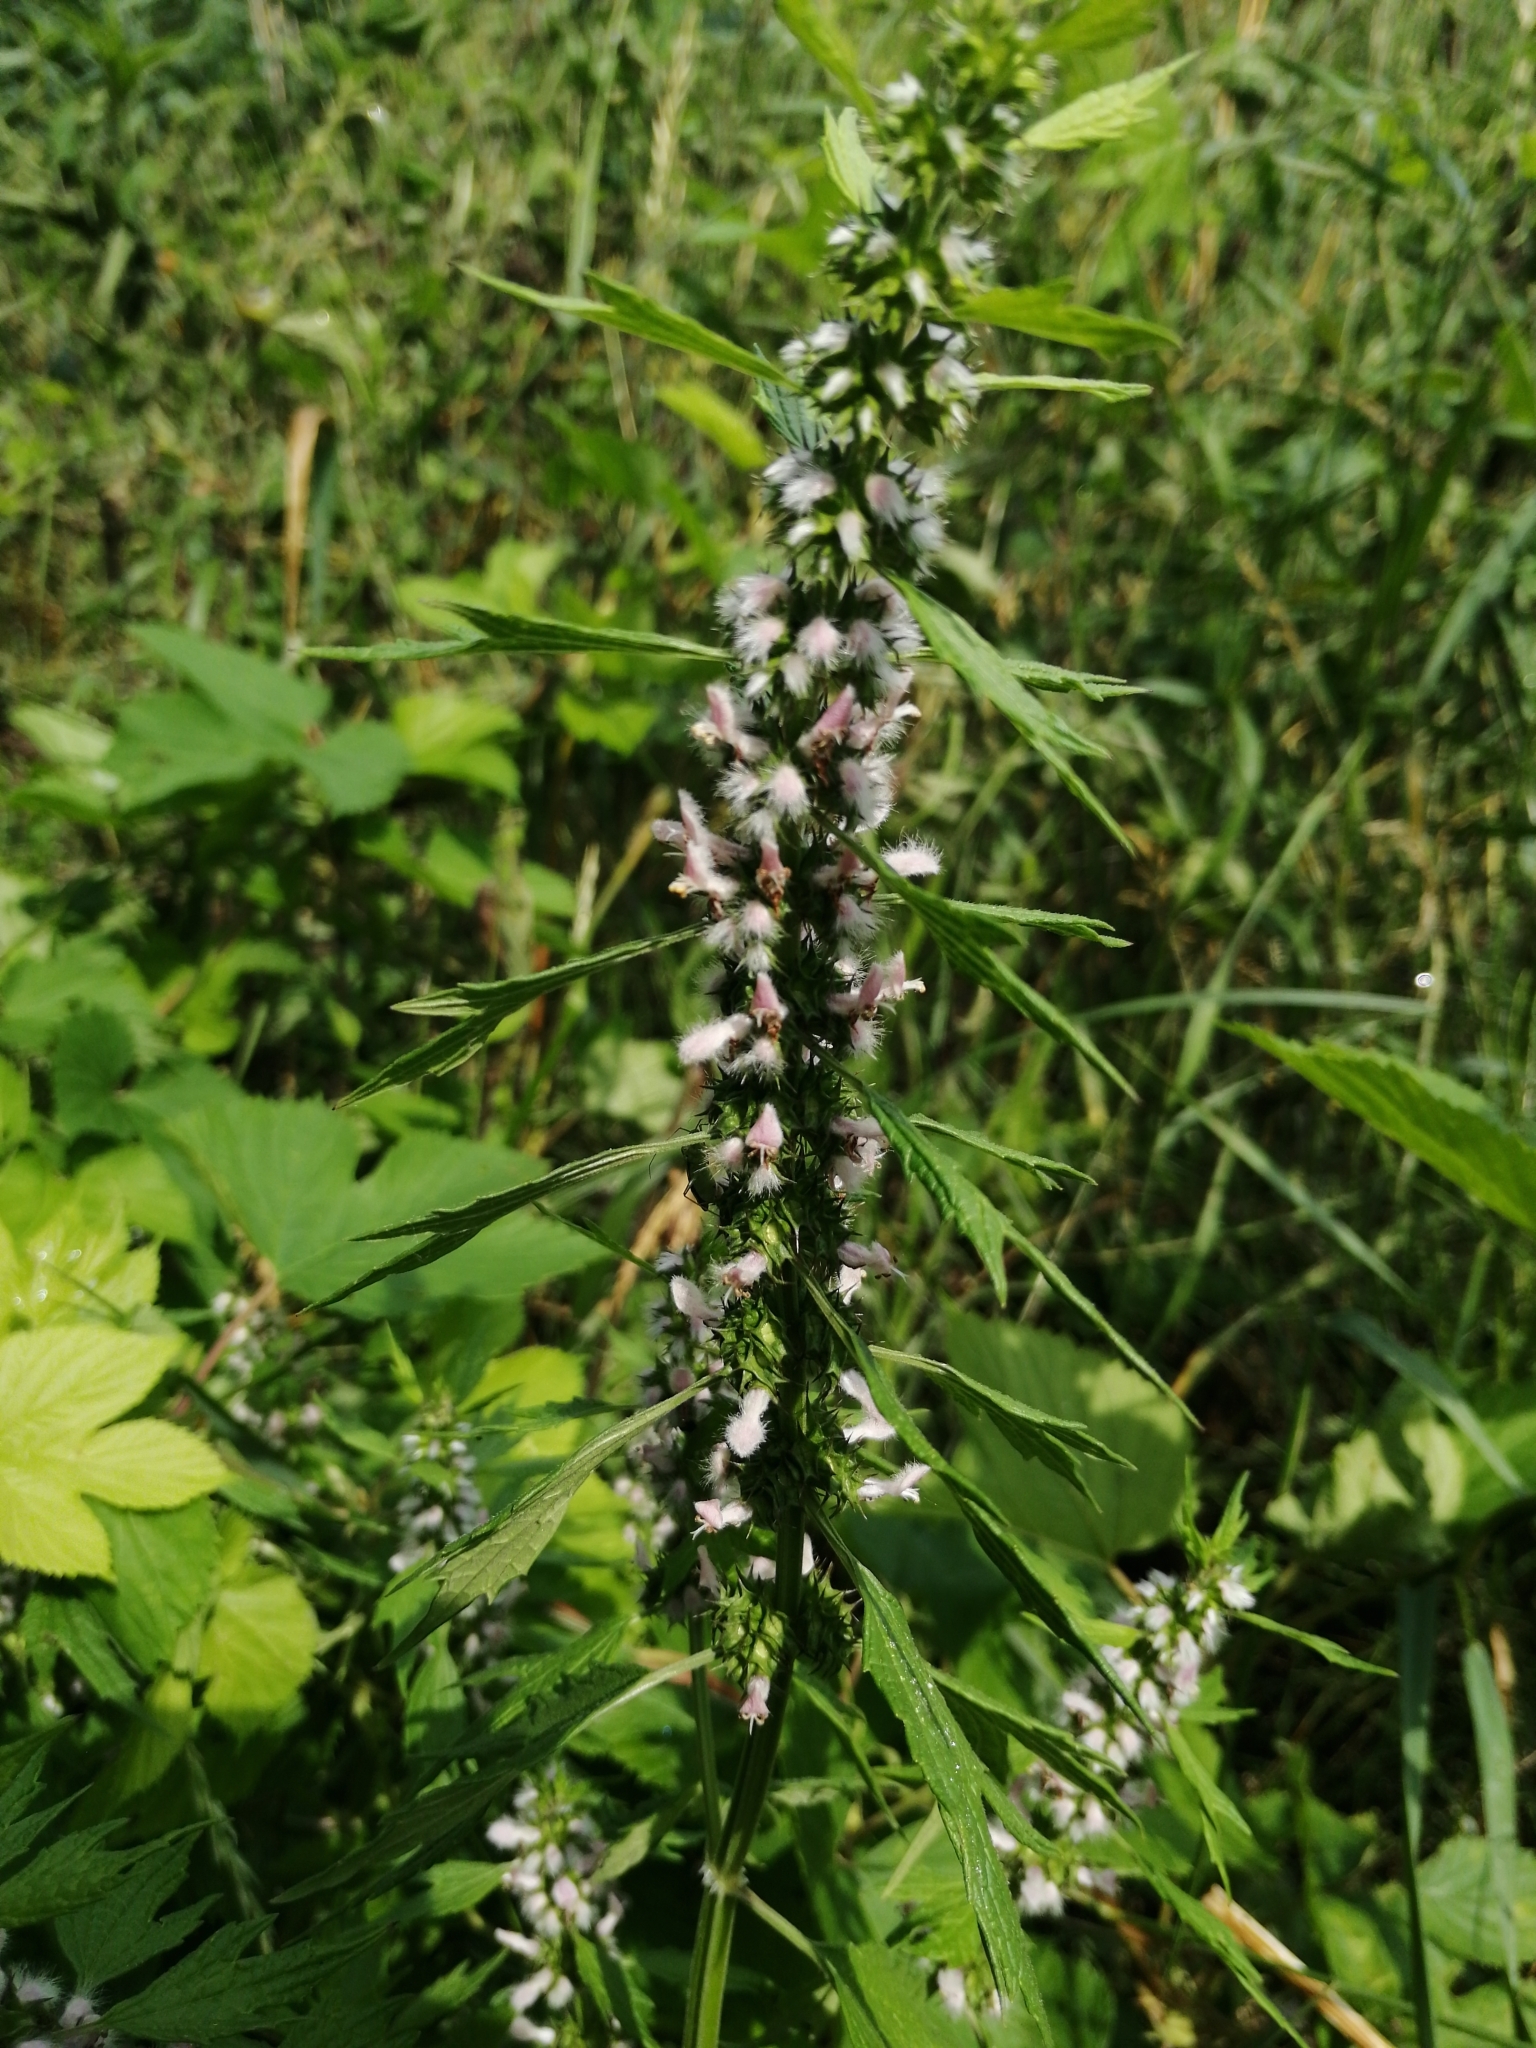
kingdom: Plantae
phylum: Tracheophyta
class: Magnoliopsida
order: Lamiales
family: Lamiaceae
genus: Leonurus
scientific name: Leonurus cardiaca
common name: Motherwort
